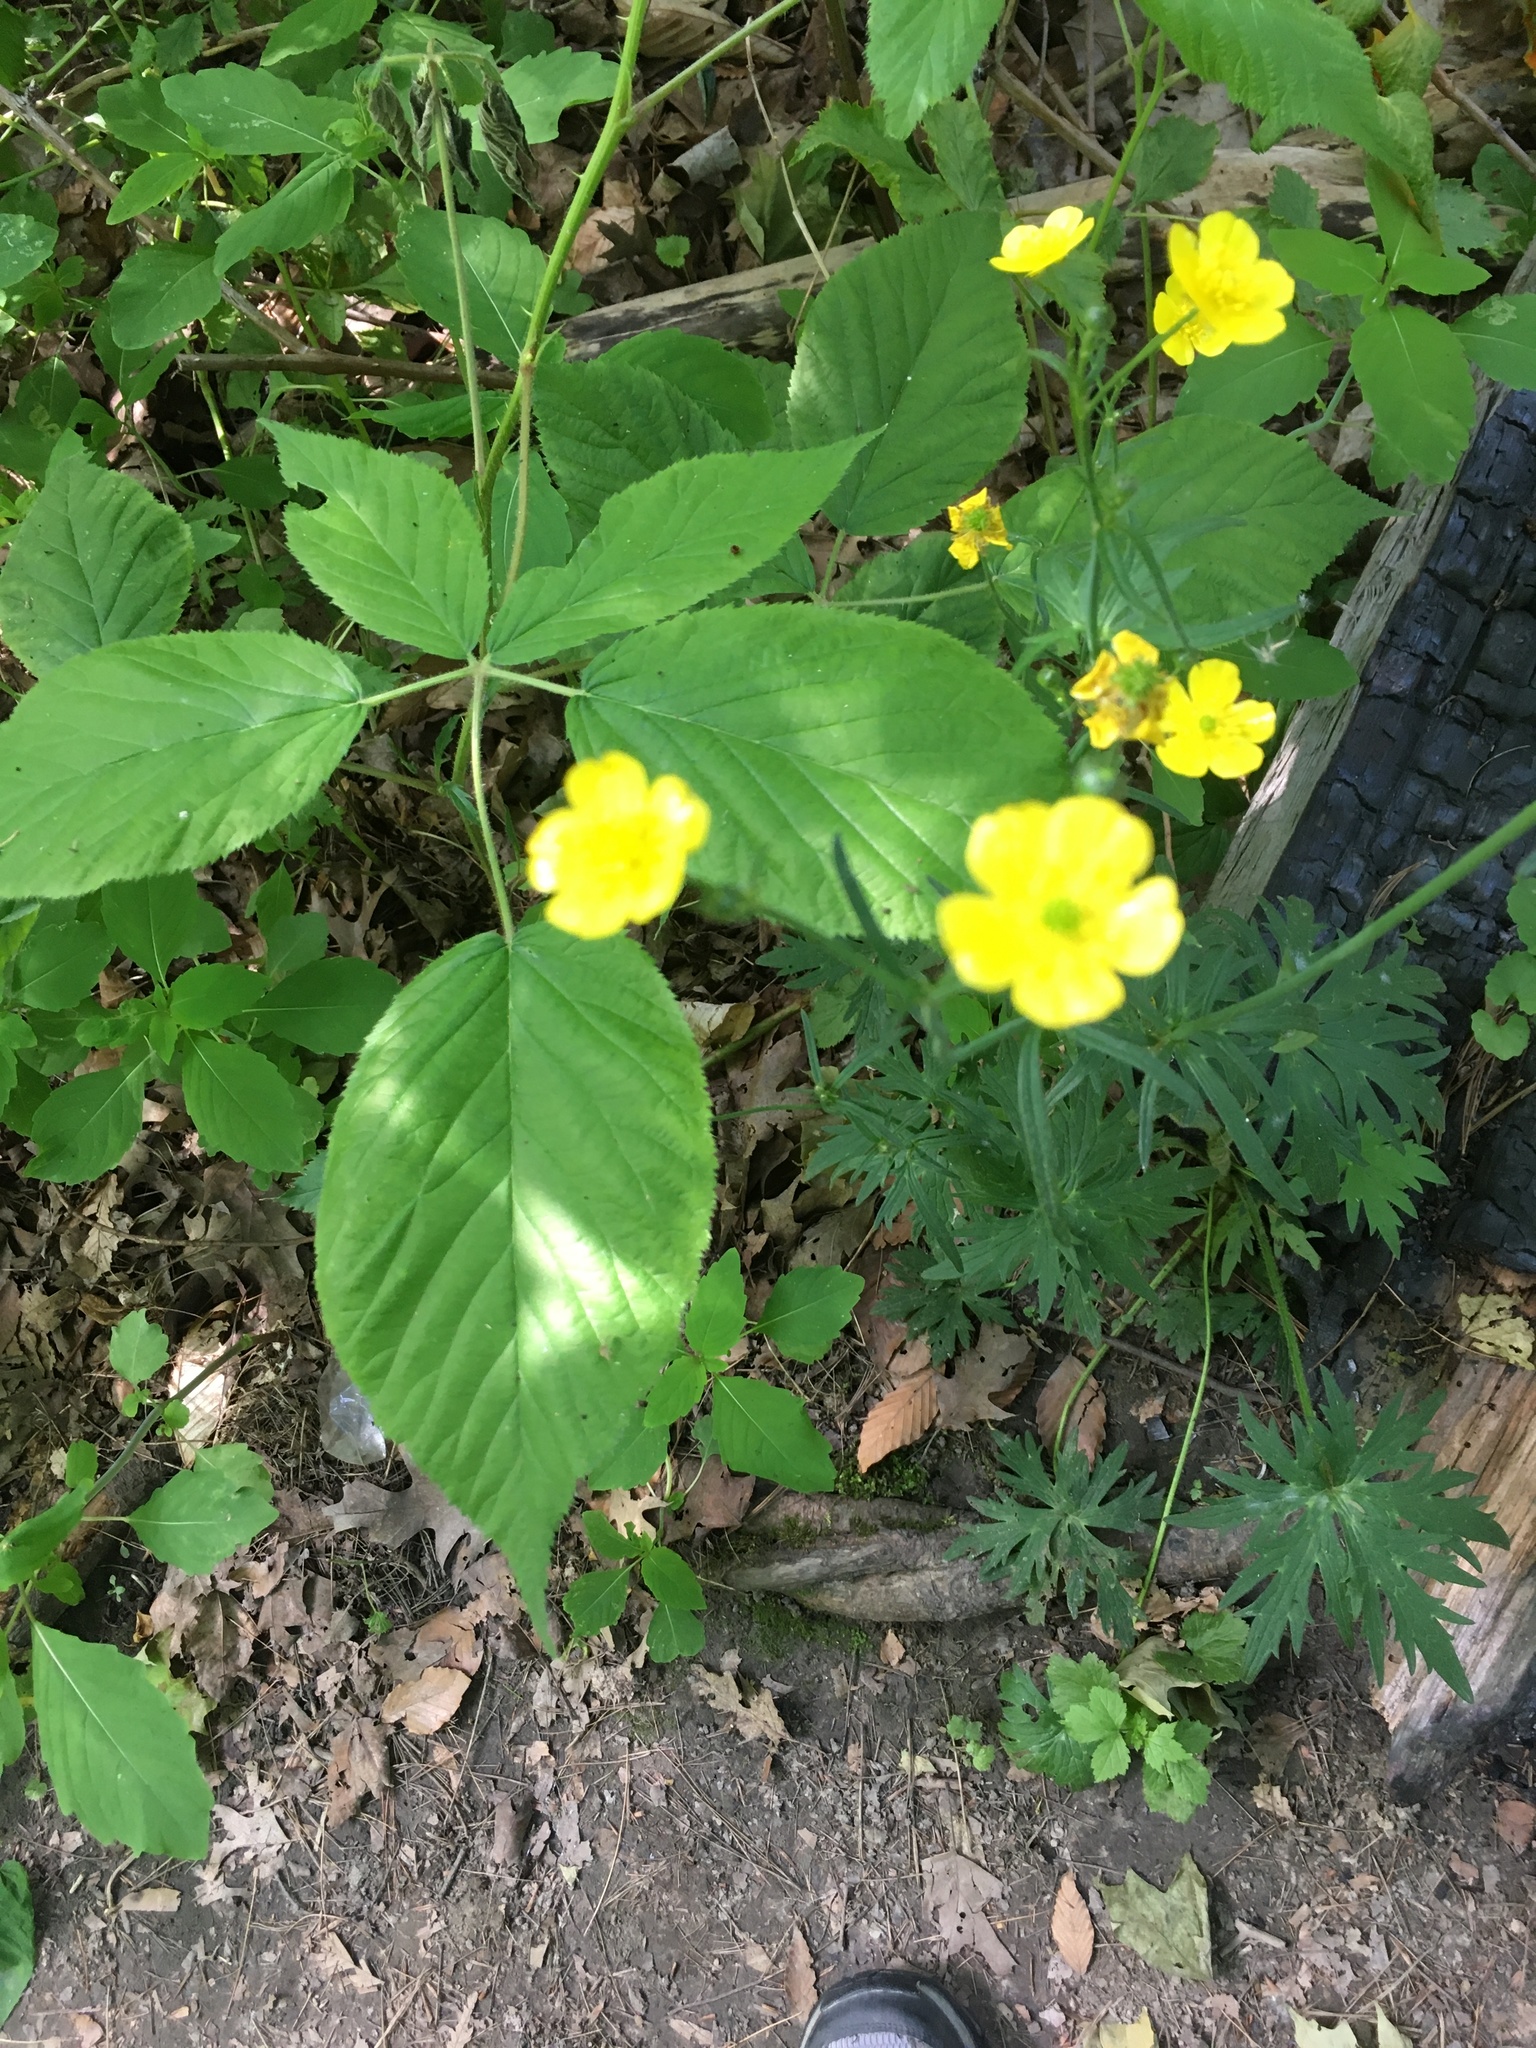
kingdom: Plantae
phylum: Tracheophyta
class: Magnoliopsida
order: Ranunculales
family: Ranunculaceae
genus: Ranunculus
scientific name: Ranunculus acris
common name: Meadow buttercup
